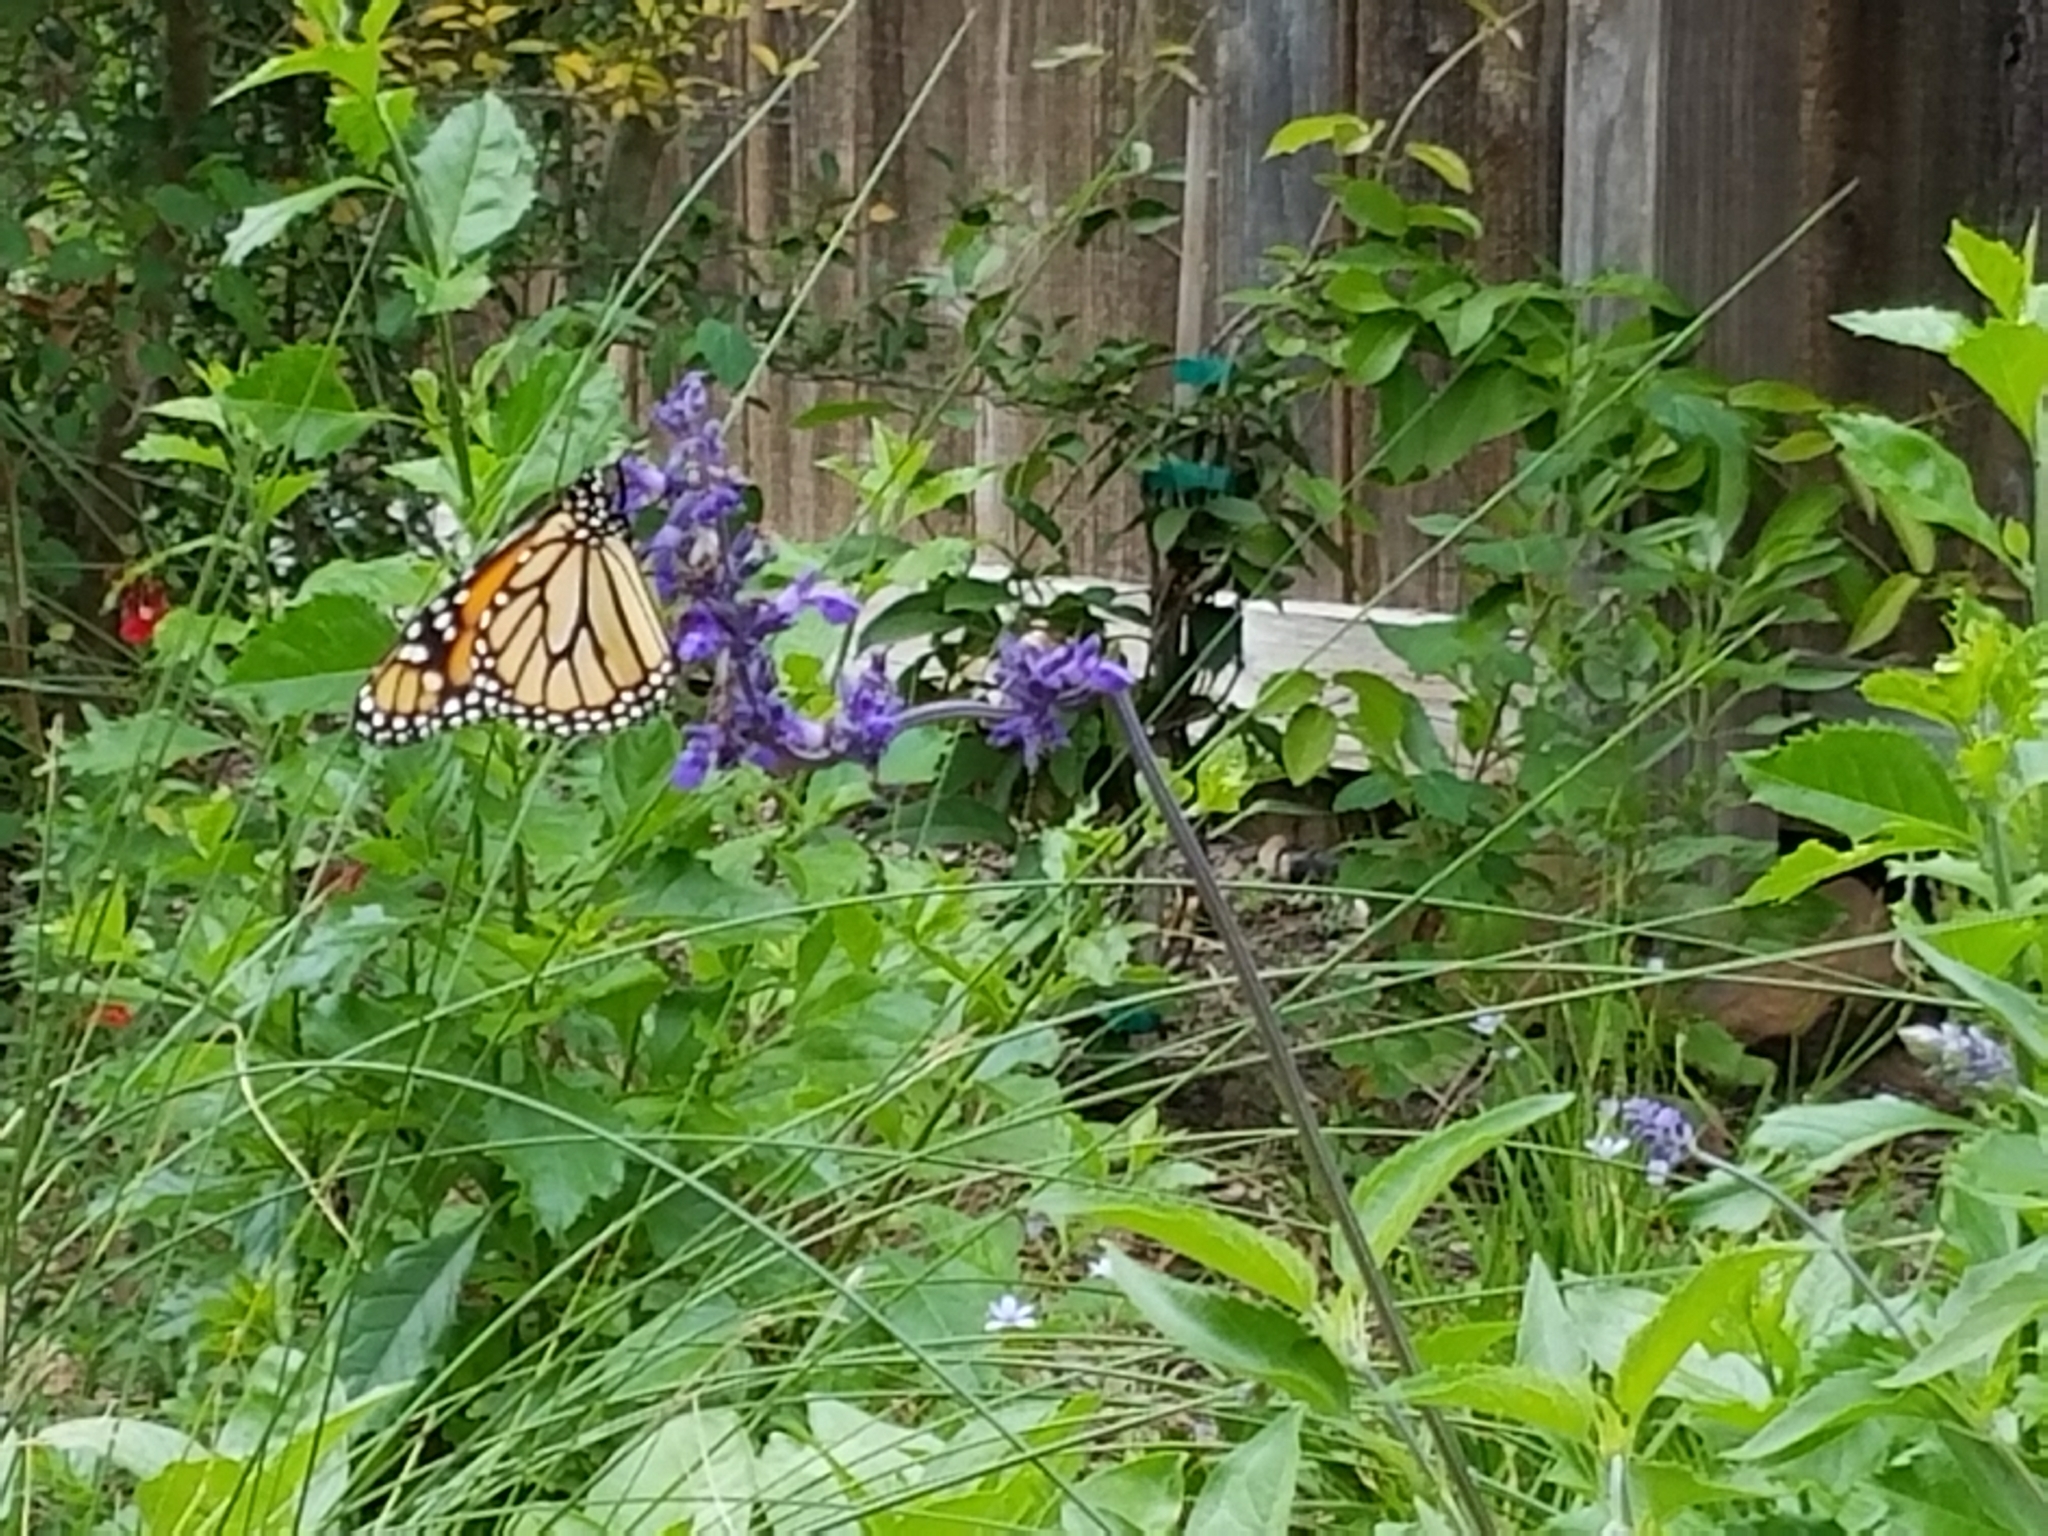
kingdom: Animalia
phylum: Arthropoda
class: Insecta
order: Lepidoptera
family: Nymphalidae
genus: Danaus
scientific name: Danaus plexippus
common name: Monarch
